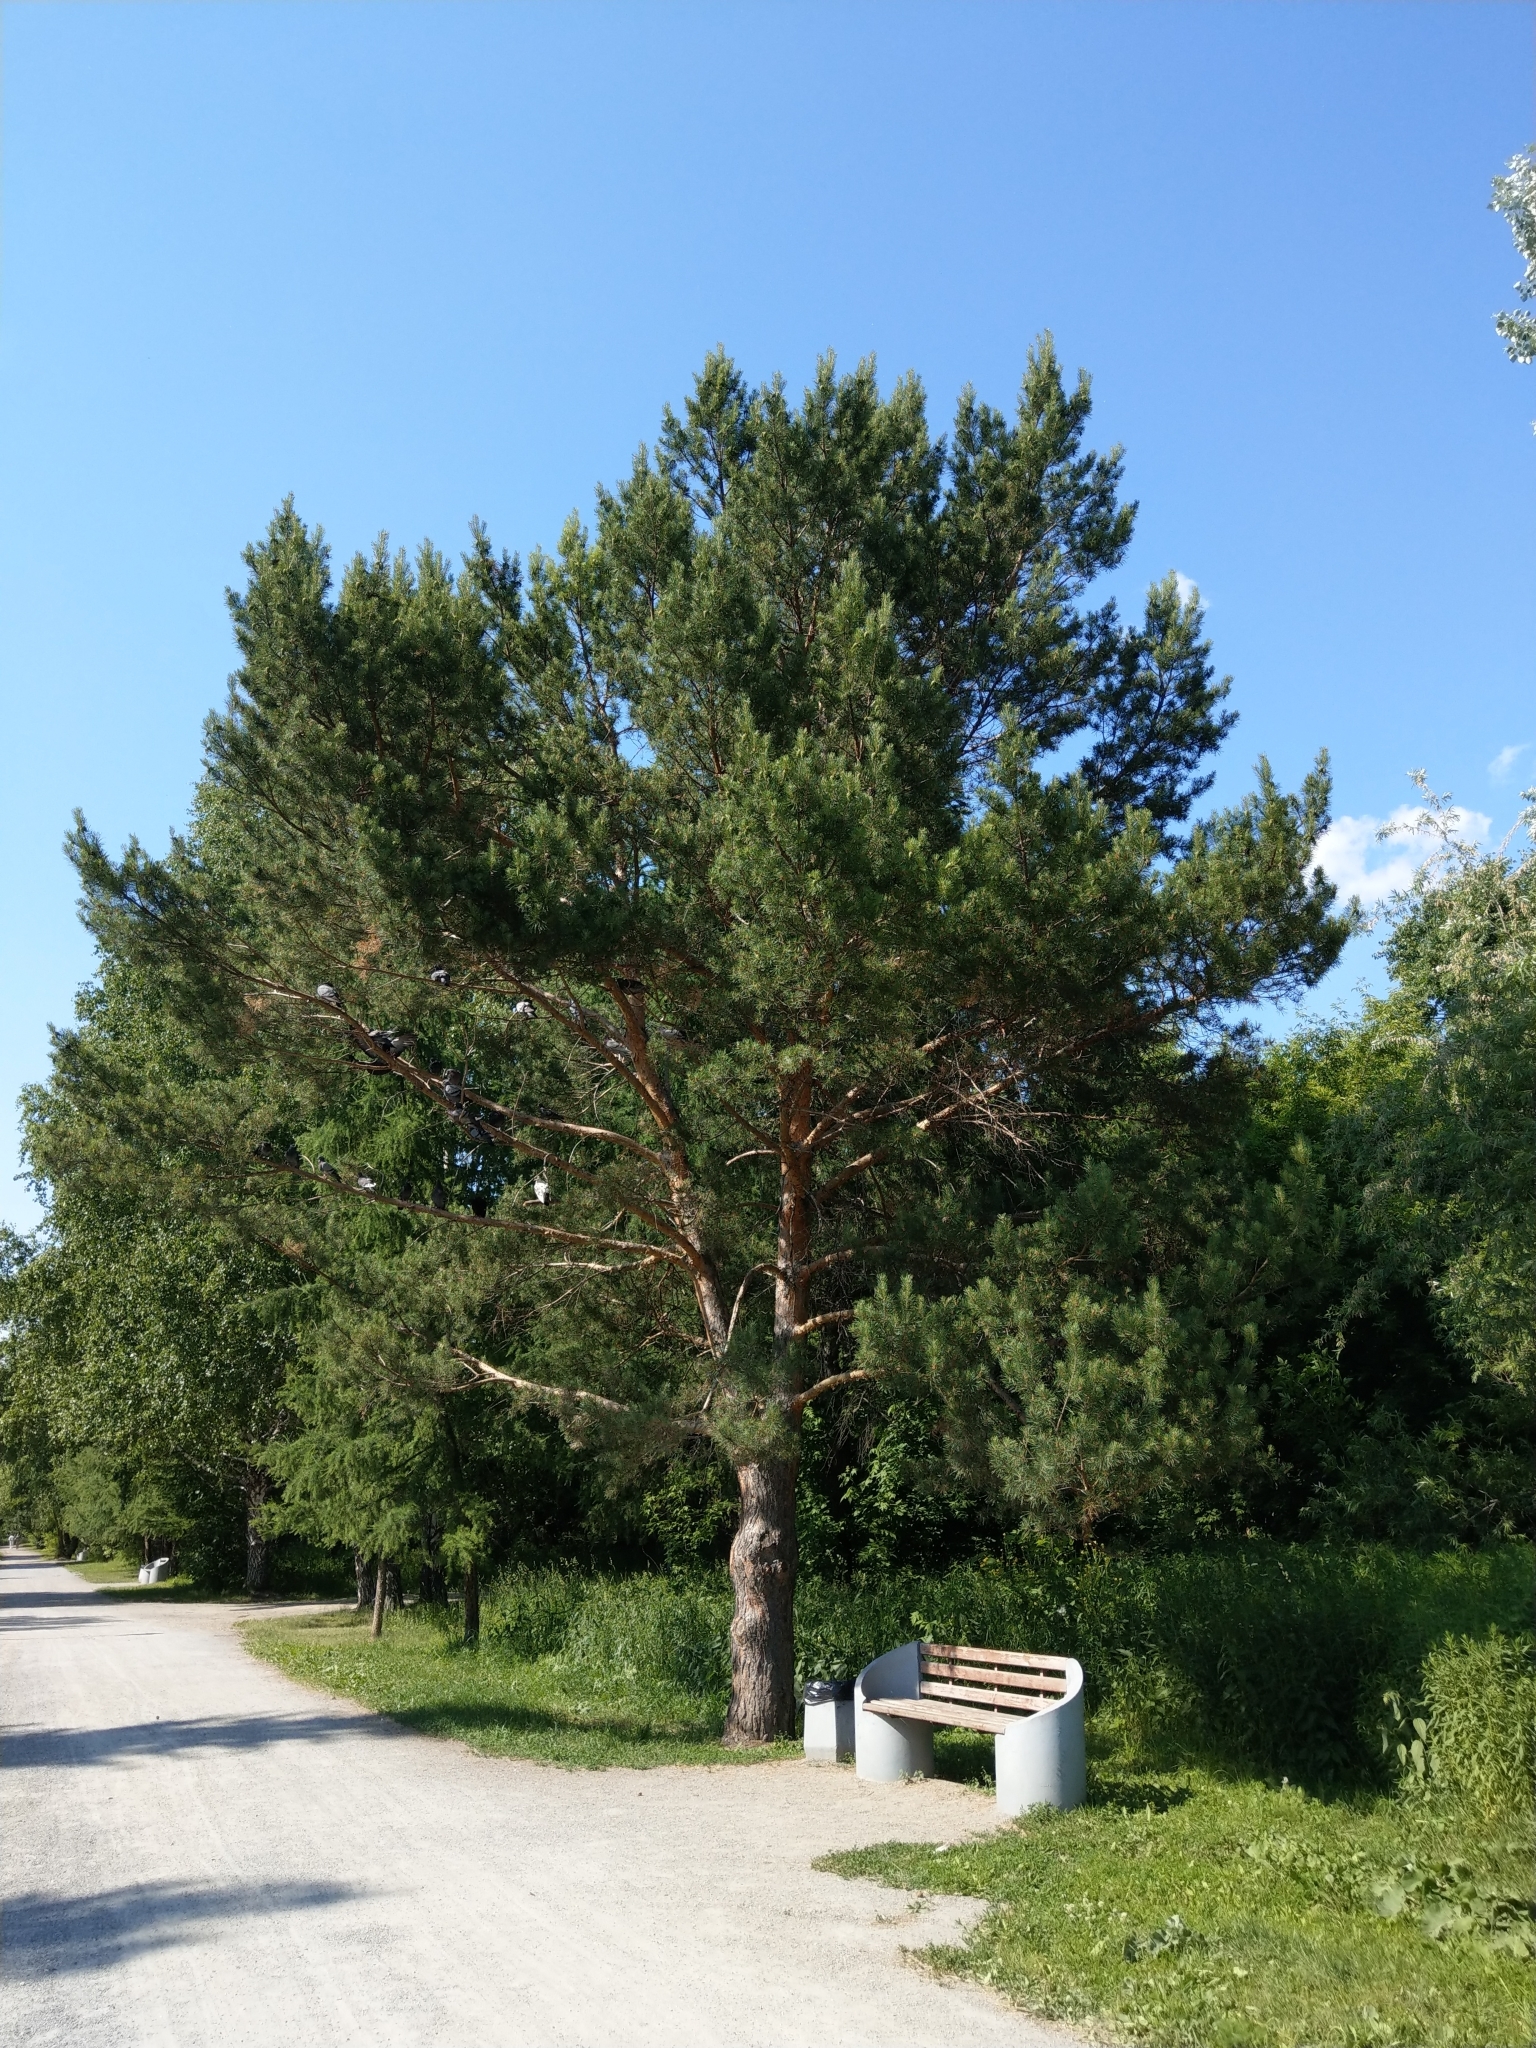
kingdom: Plantae
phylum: Tracheophyta
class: Pinopsida
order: Pinales
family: Pinaceae
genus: Pinus
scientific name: Pinus sylvestris
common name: Scots pine
